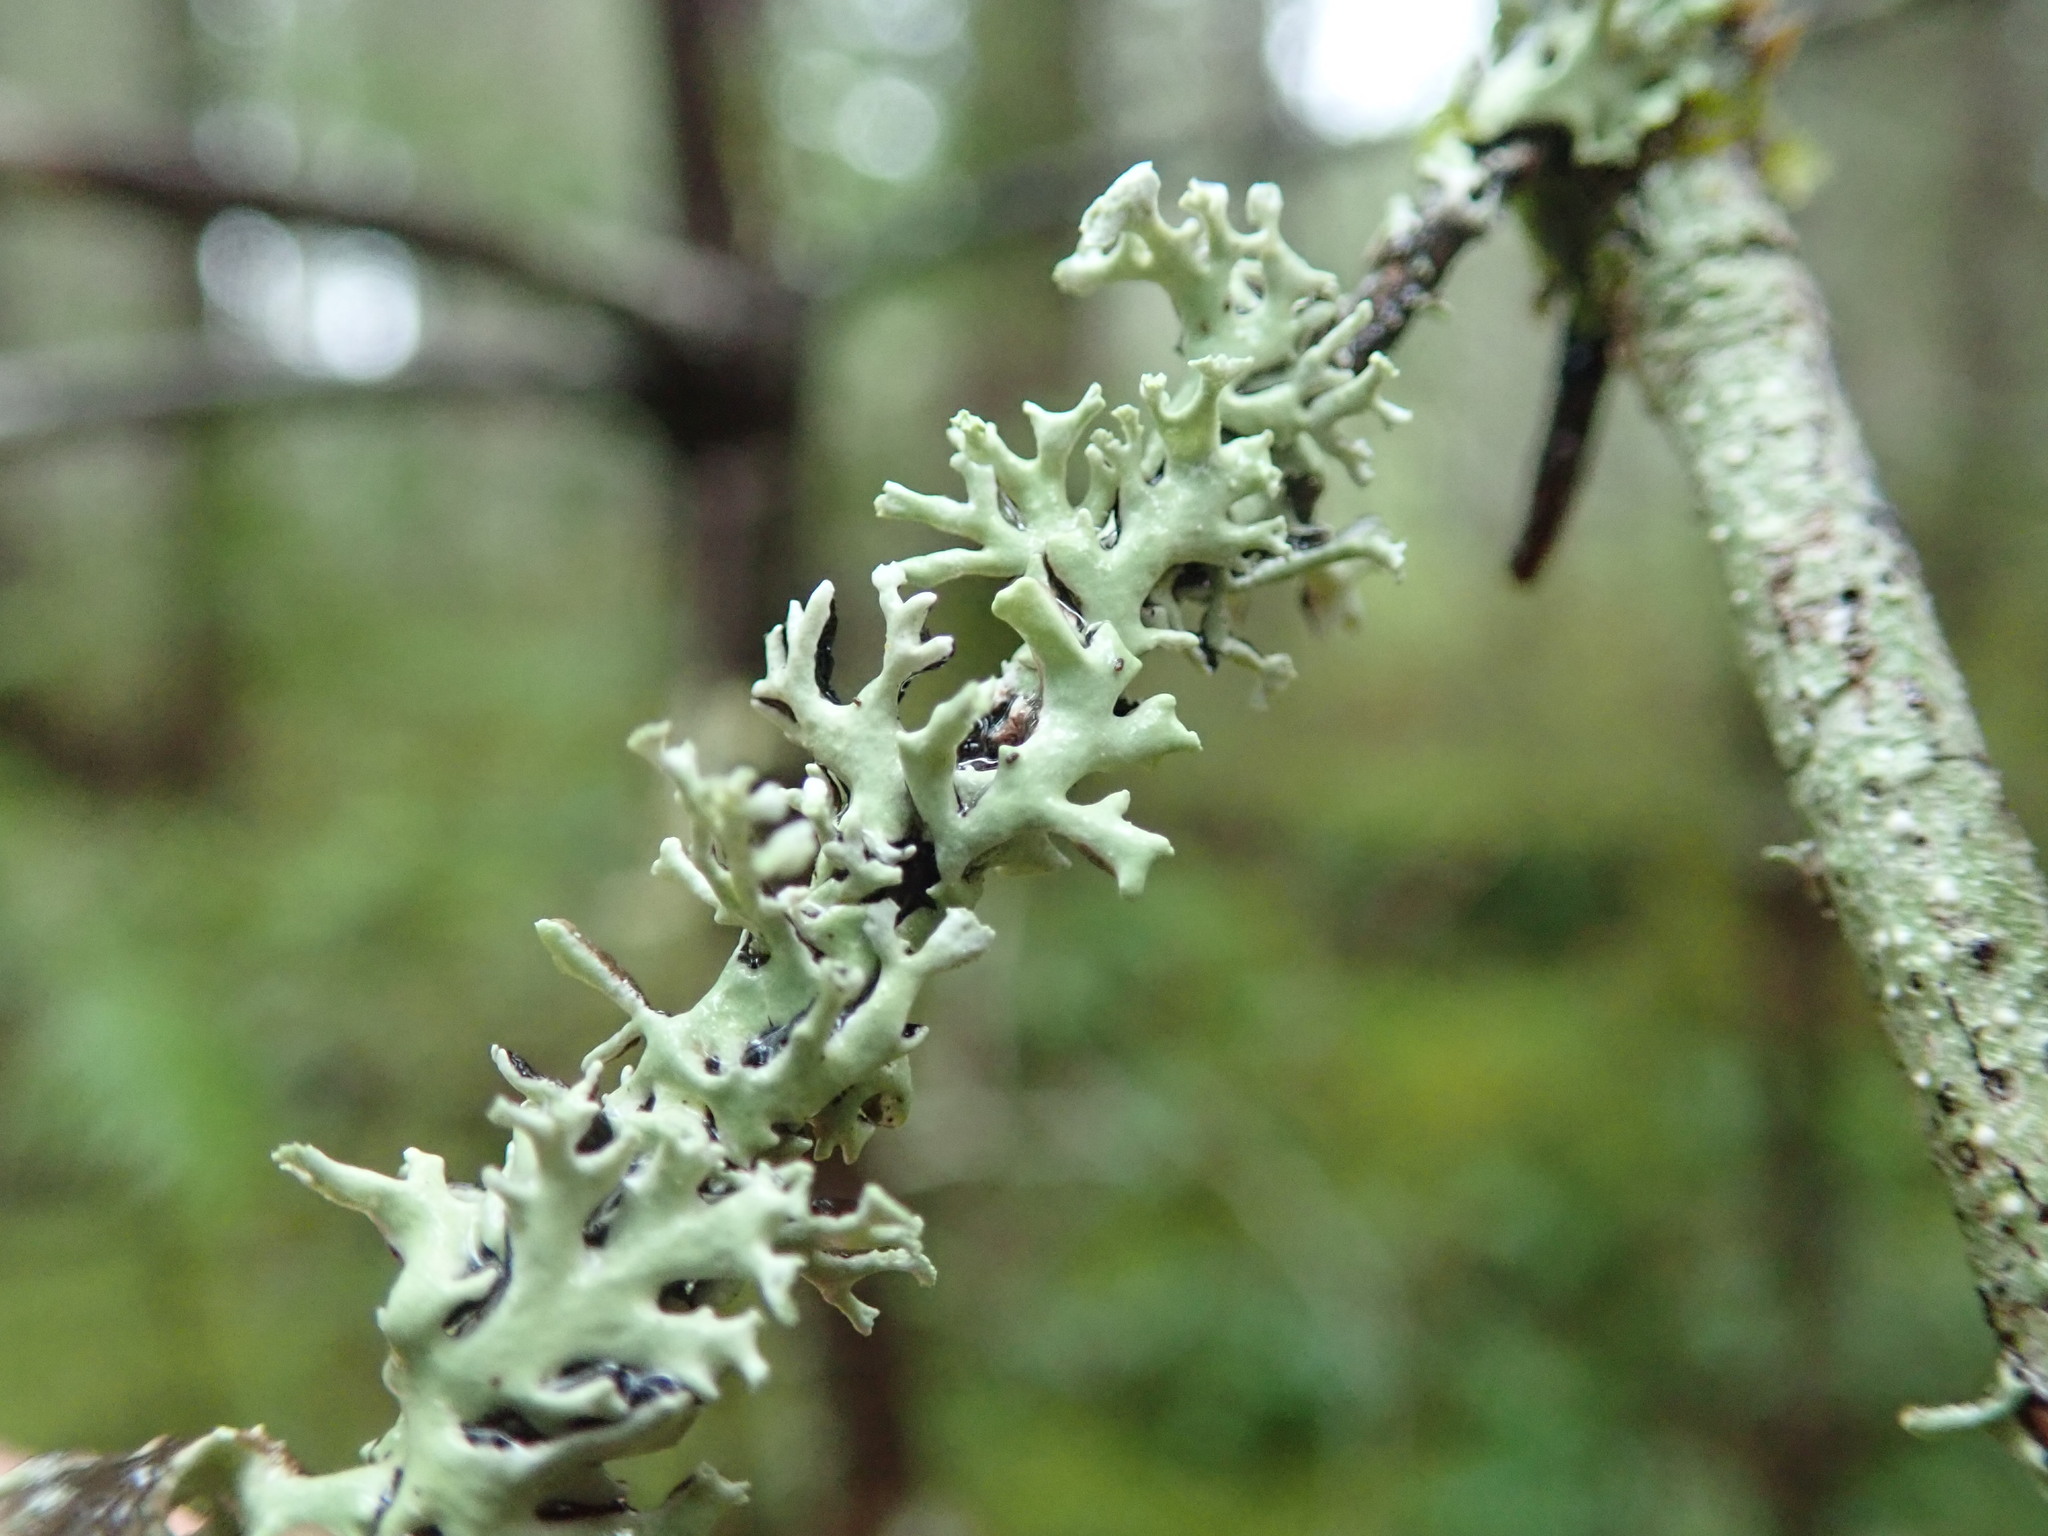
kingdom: Fungi
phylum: Ascomycota
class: Lecanoromycetes
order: Lecanorales
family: Parmeliaceae
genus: Hypogymnia
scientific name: Hypogymnia physodes
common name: Dark crottle
